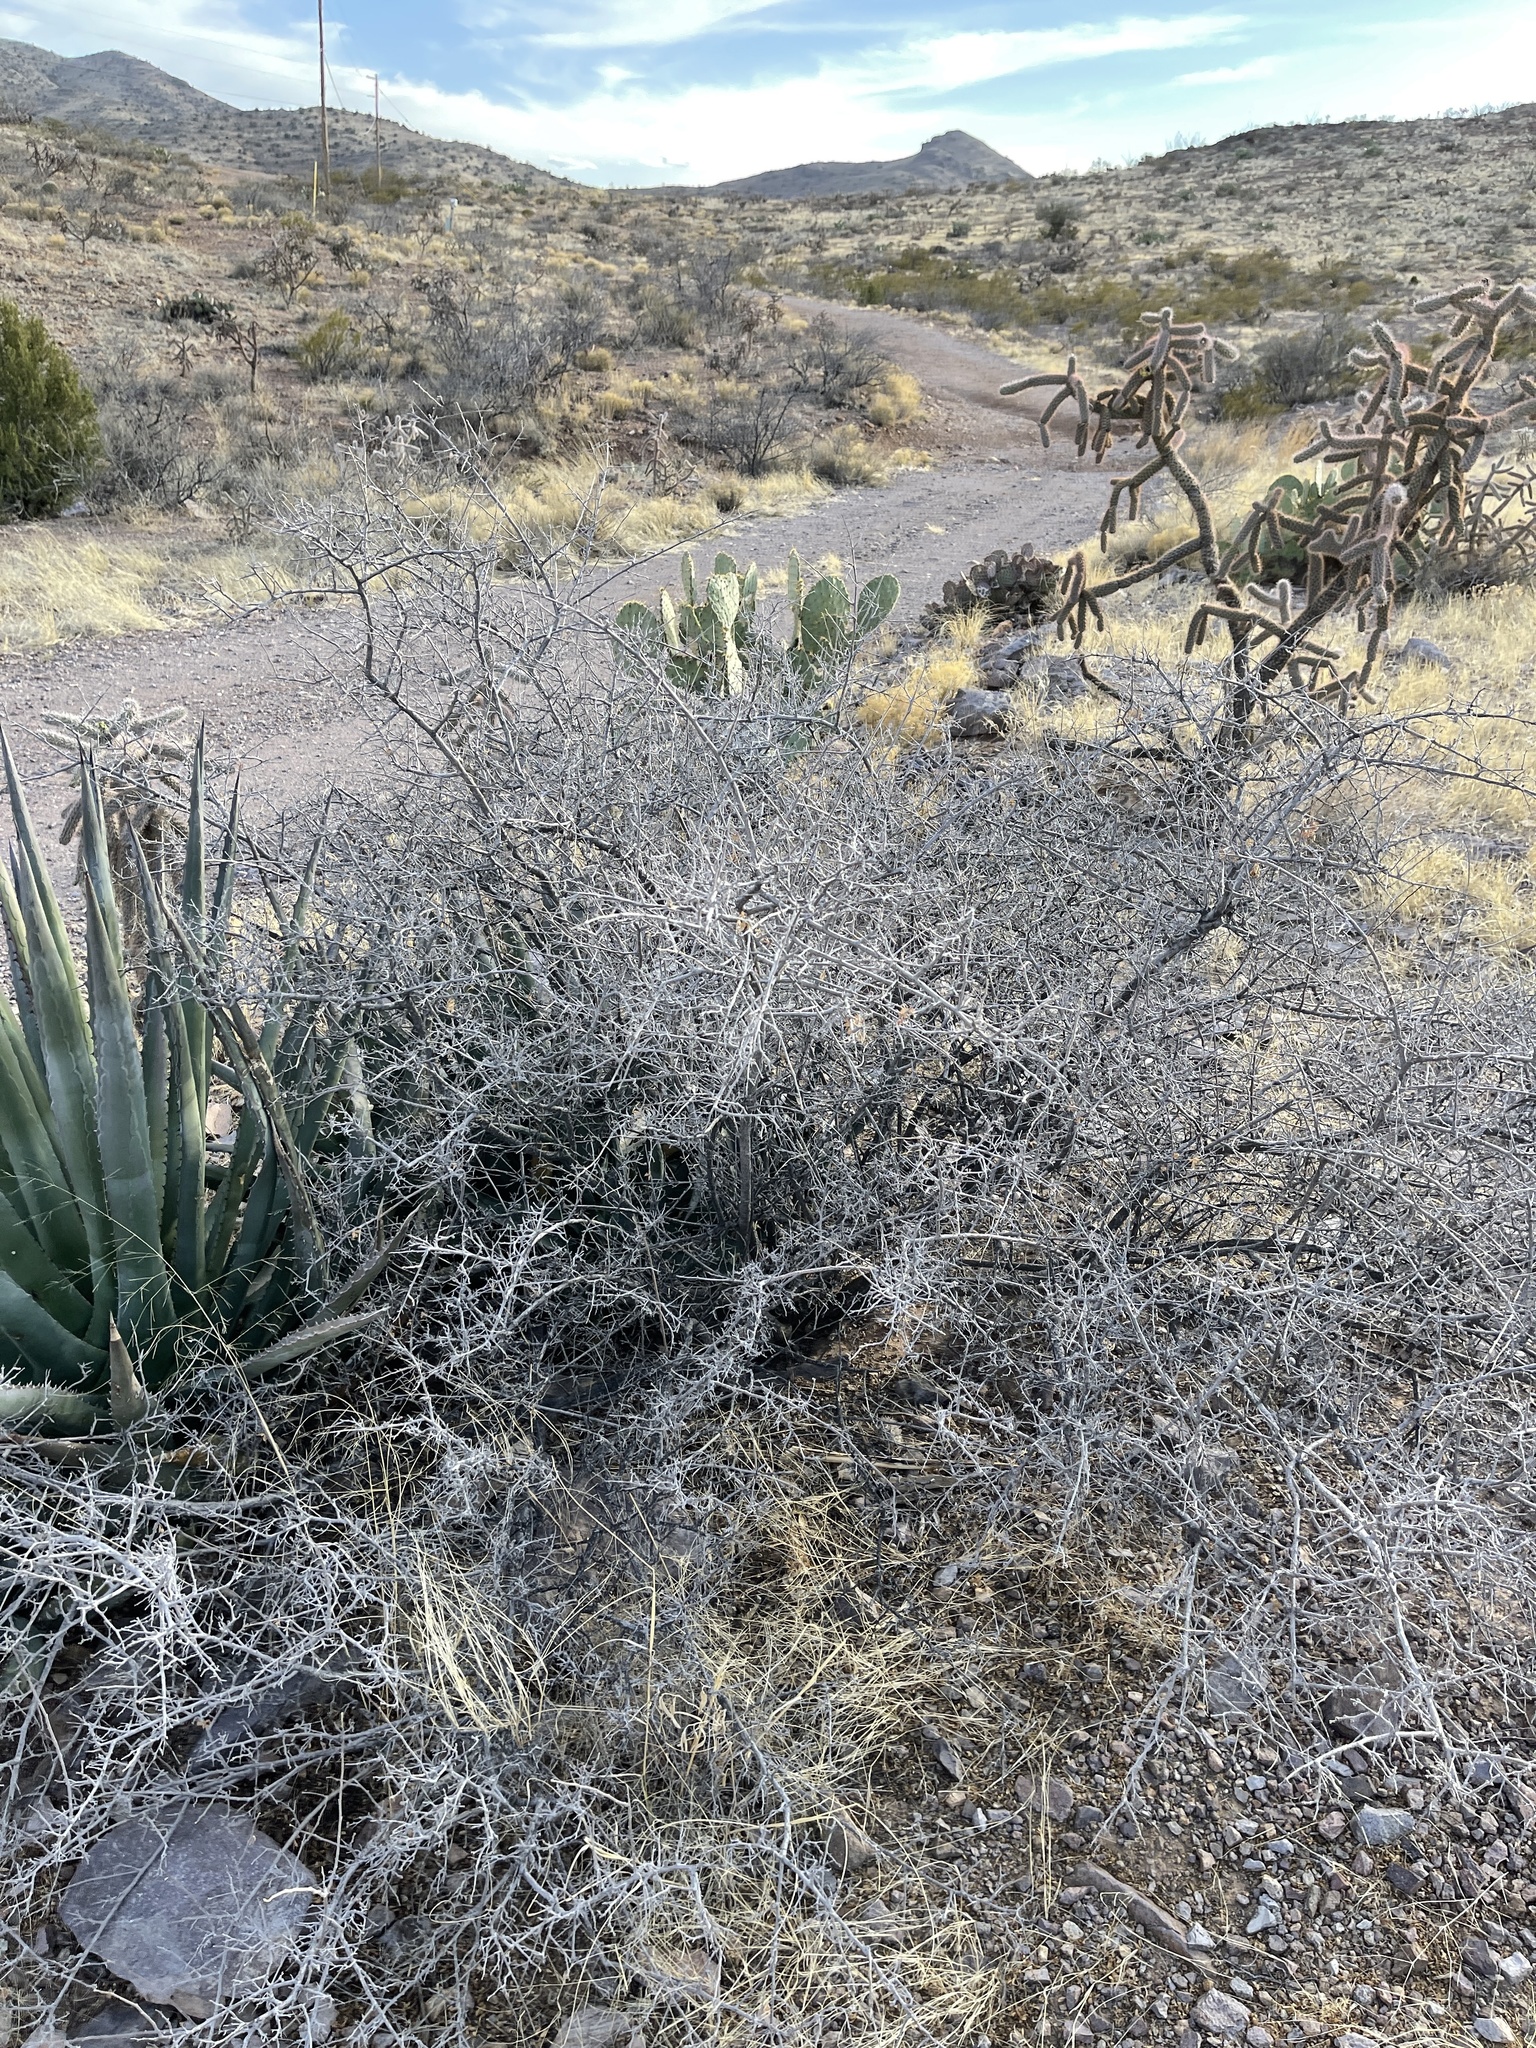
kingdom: Plantae
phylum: Tracheophyta
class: Magnoliopsida
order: Sapindales
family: Anacardiaceae
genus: Rhus
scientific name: Rhus microphylla
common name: Desert sumac
